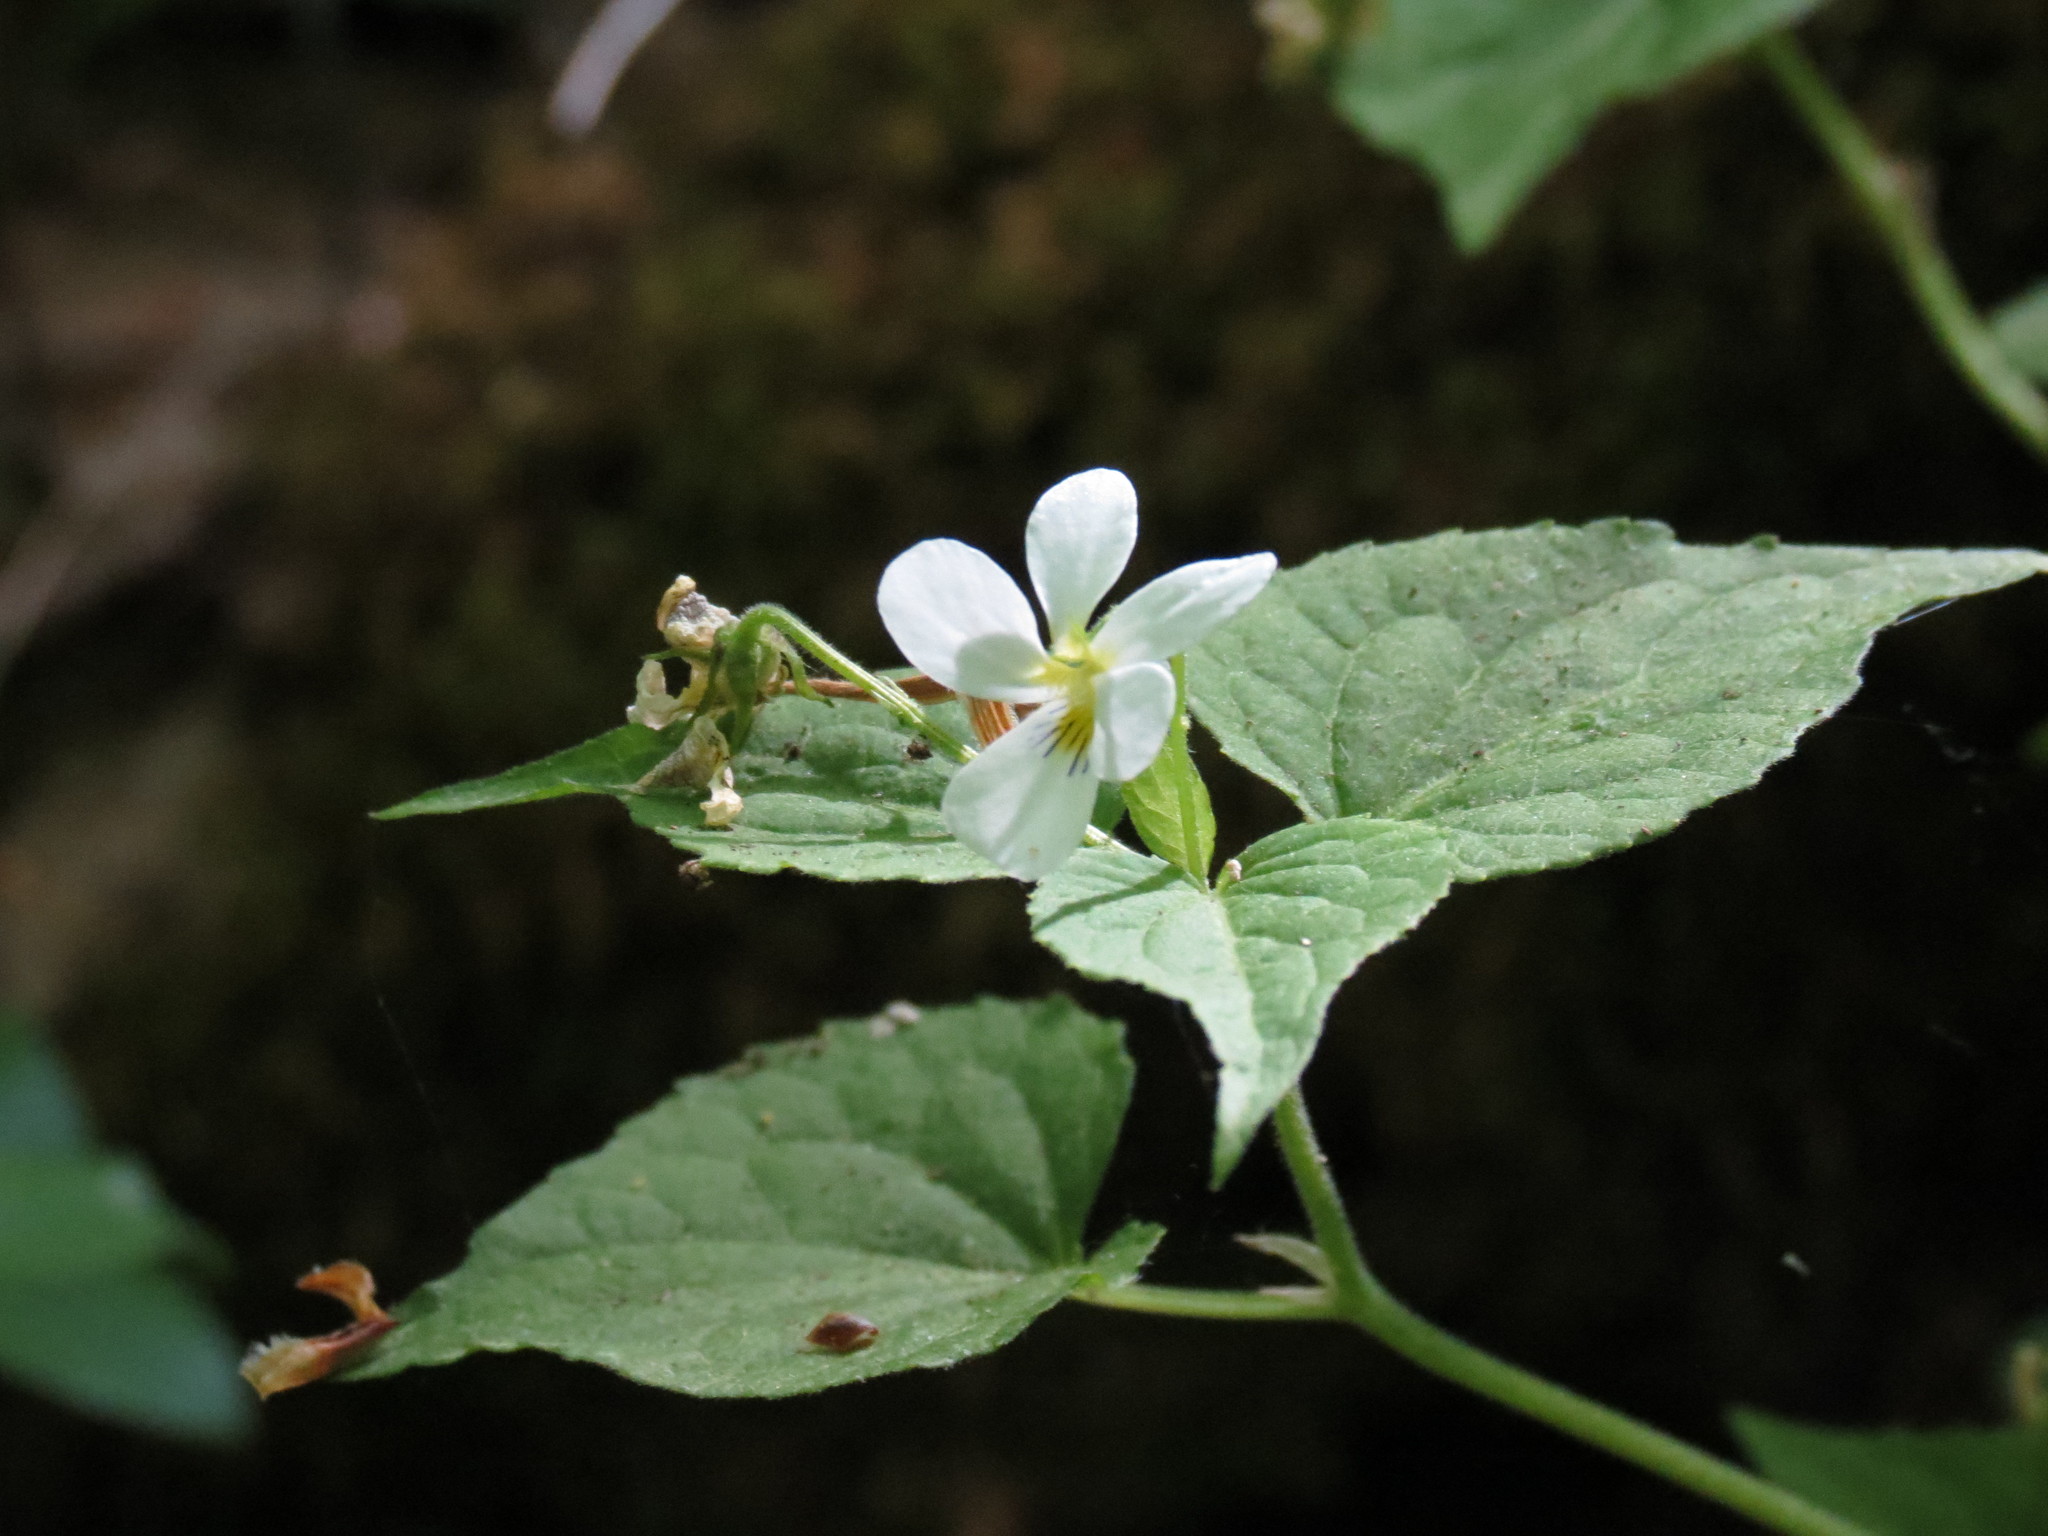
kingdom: Plantae
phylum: Tracheophyta
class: Magnoliopsida
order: Malpighiales
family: Violaceae
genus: Viola
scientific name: Viola canadensis
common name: Canada violet
